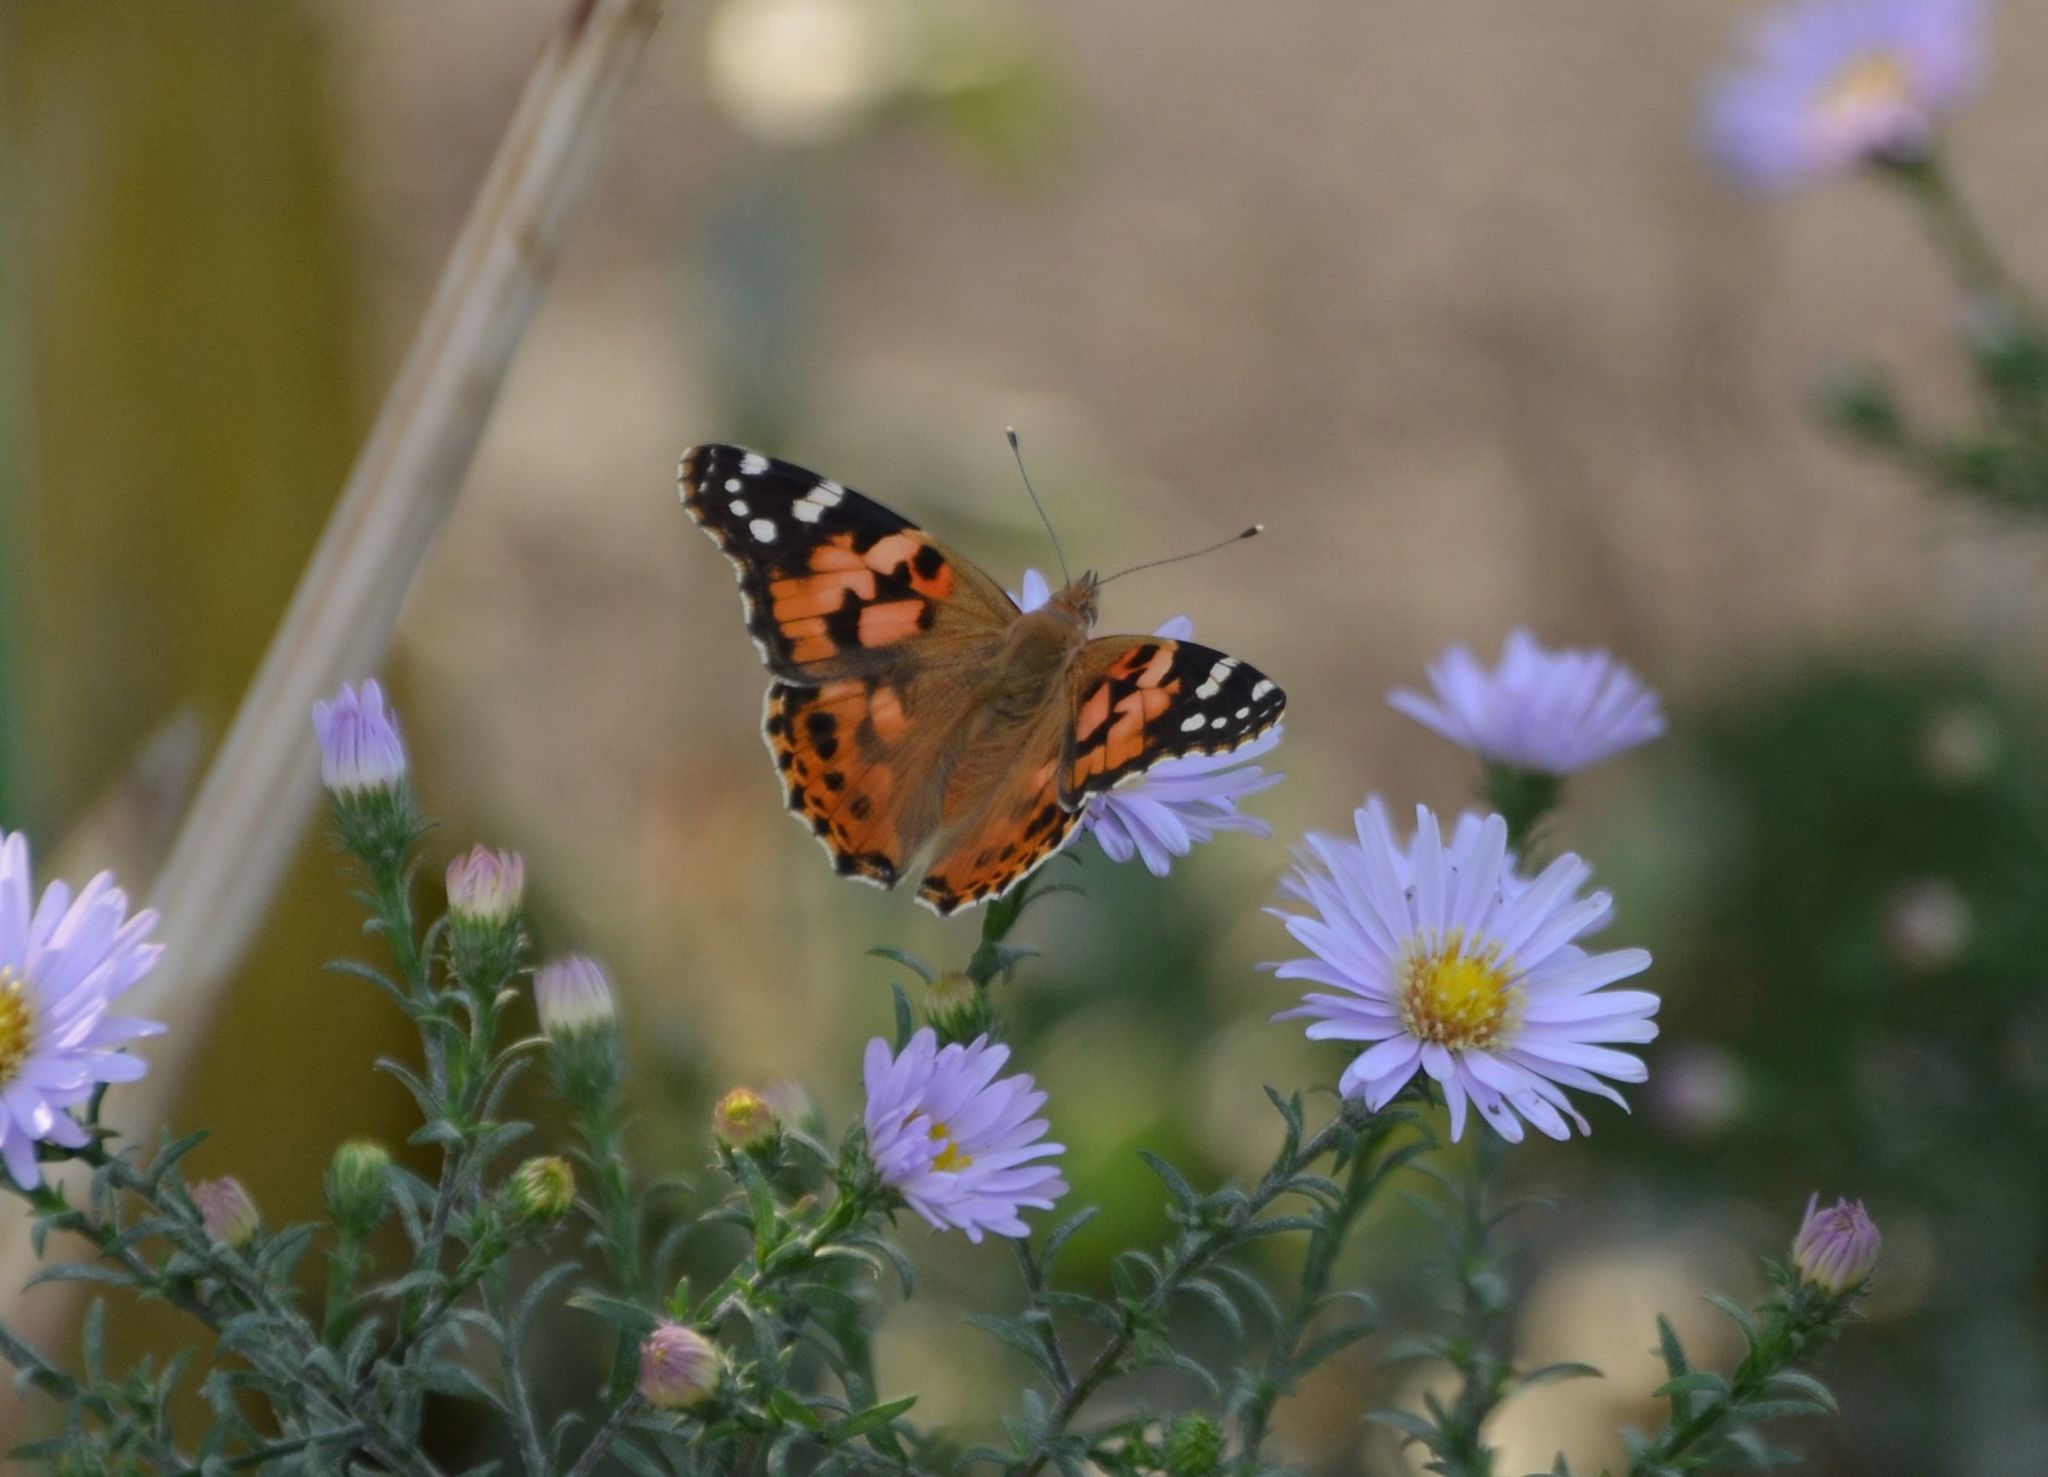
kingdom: Animalia
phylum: Arthropoda
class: Insecta
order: Lepidoptera
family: Nymphalidae
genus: Vanessa
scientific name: Vanessa cardui
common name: Painted lady
